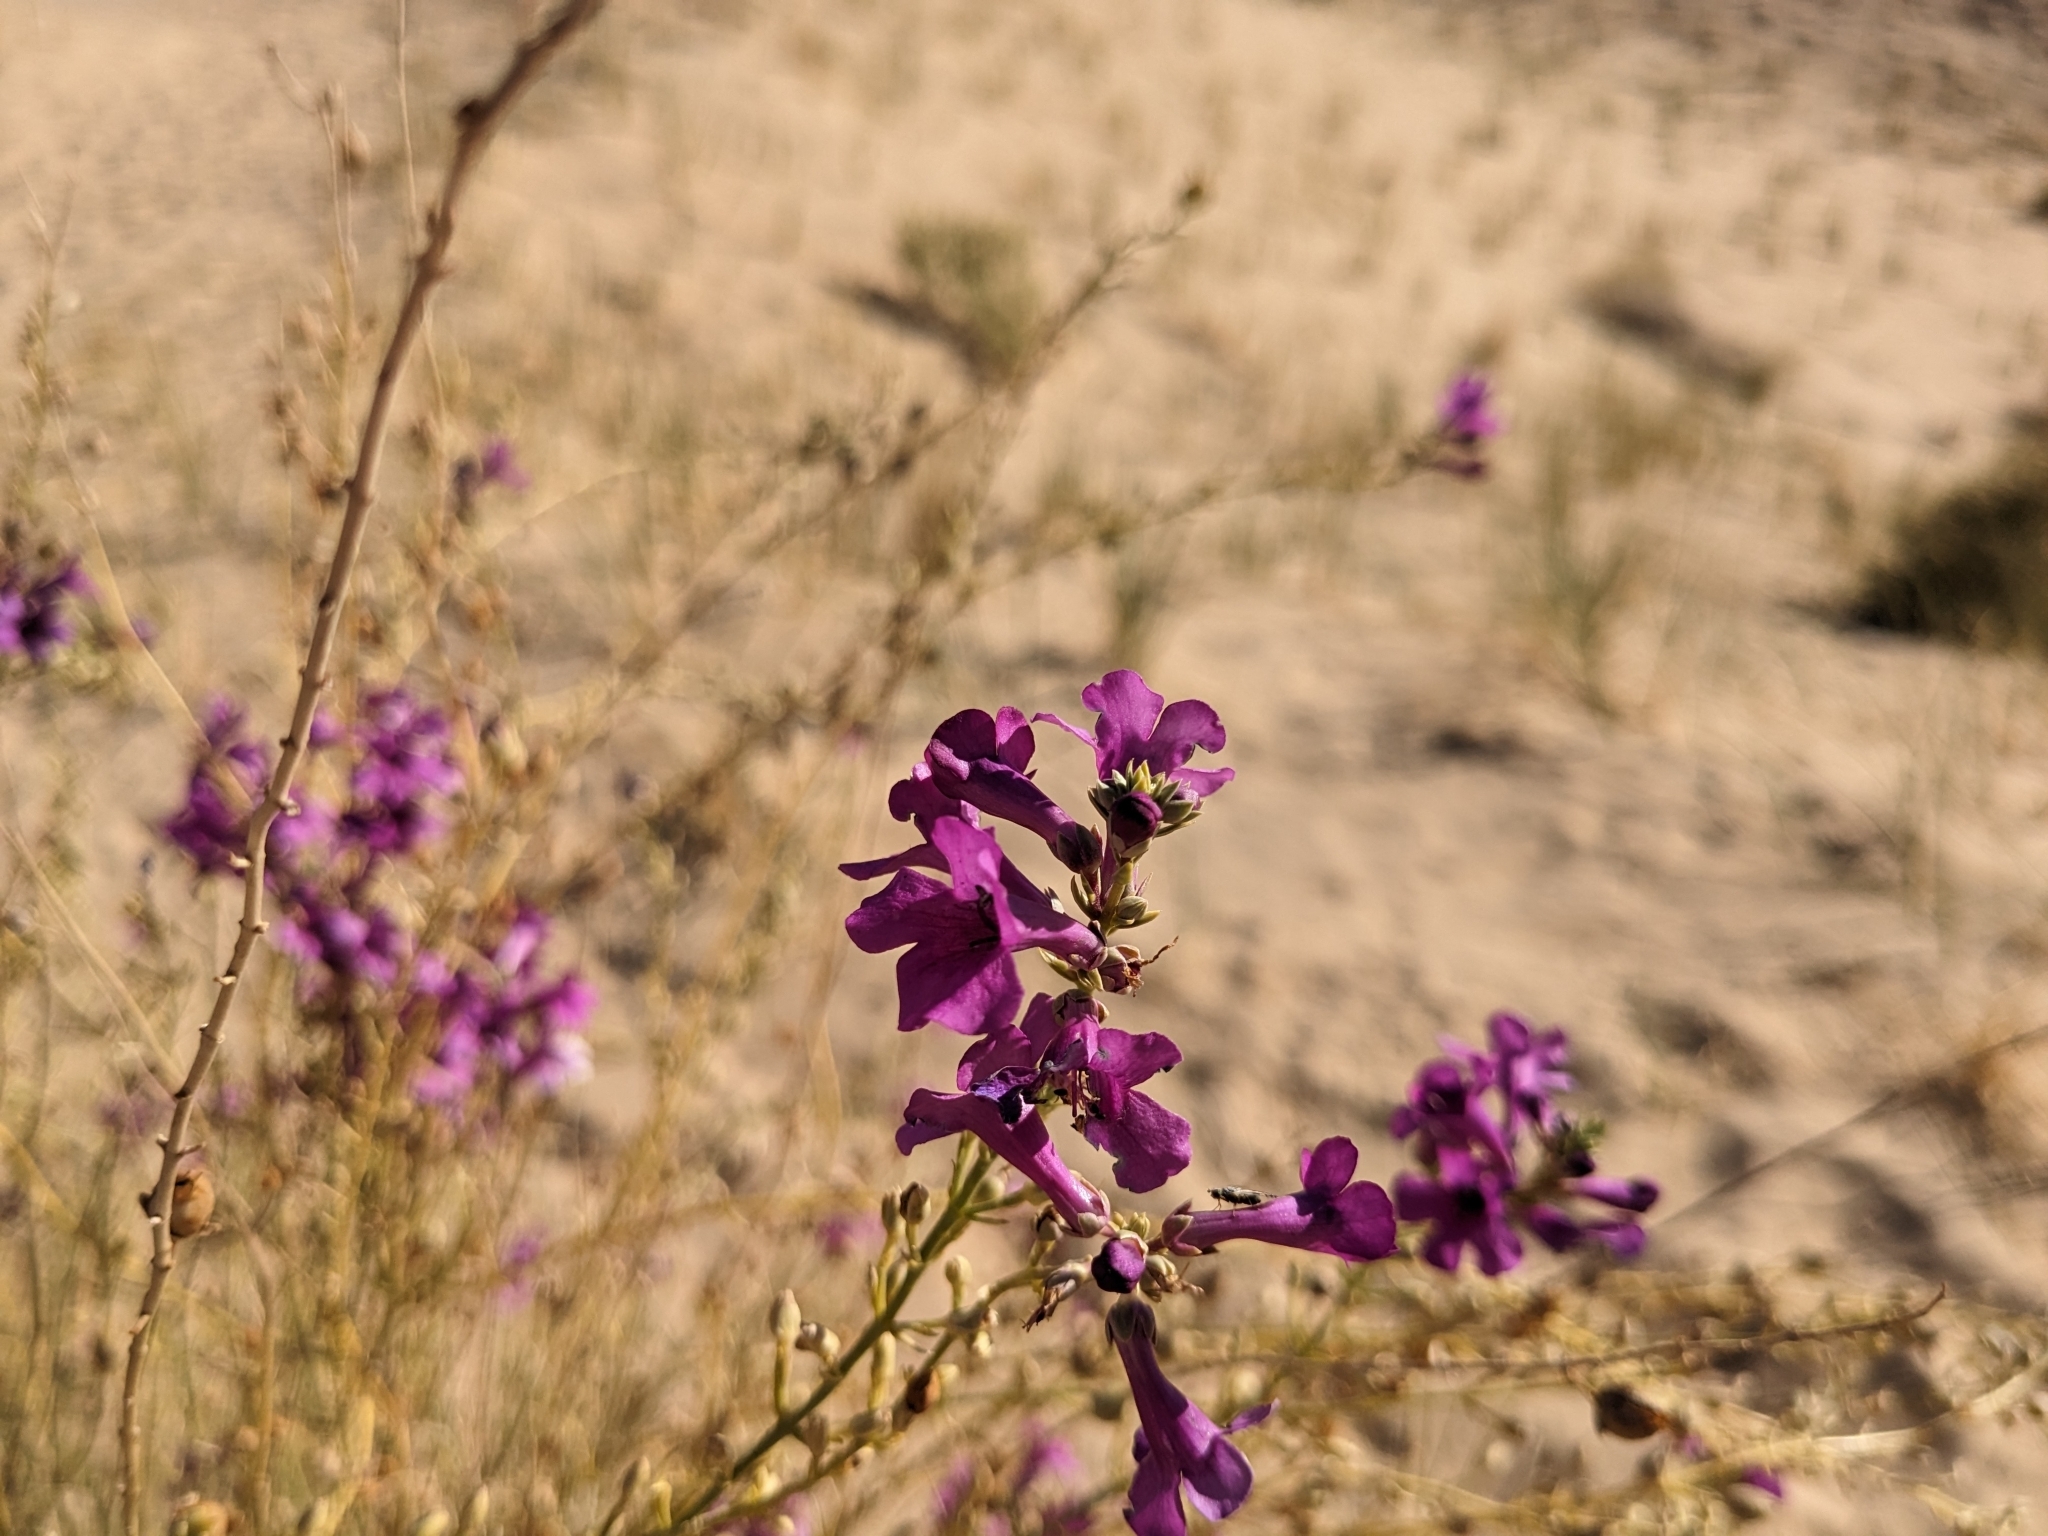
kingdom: Plantae
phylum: Tracheophyta
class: Magnoliopsida
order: Lamiales
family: Plantaginaceae
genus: Penstemon
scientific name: Penstemon thurberi
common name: Thurber's beardtongue
